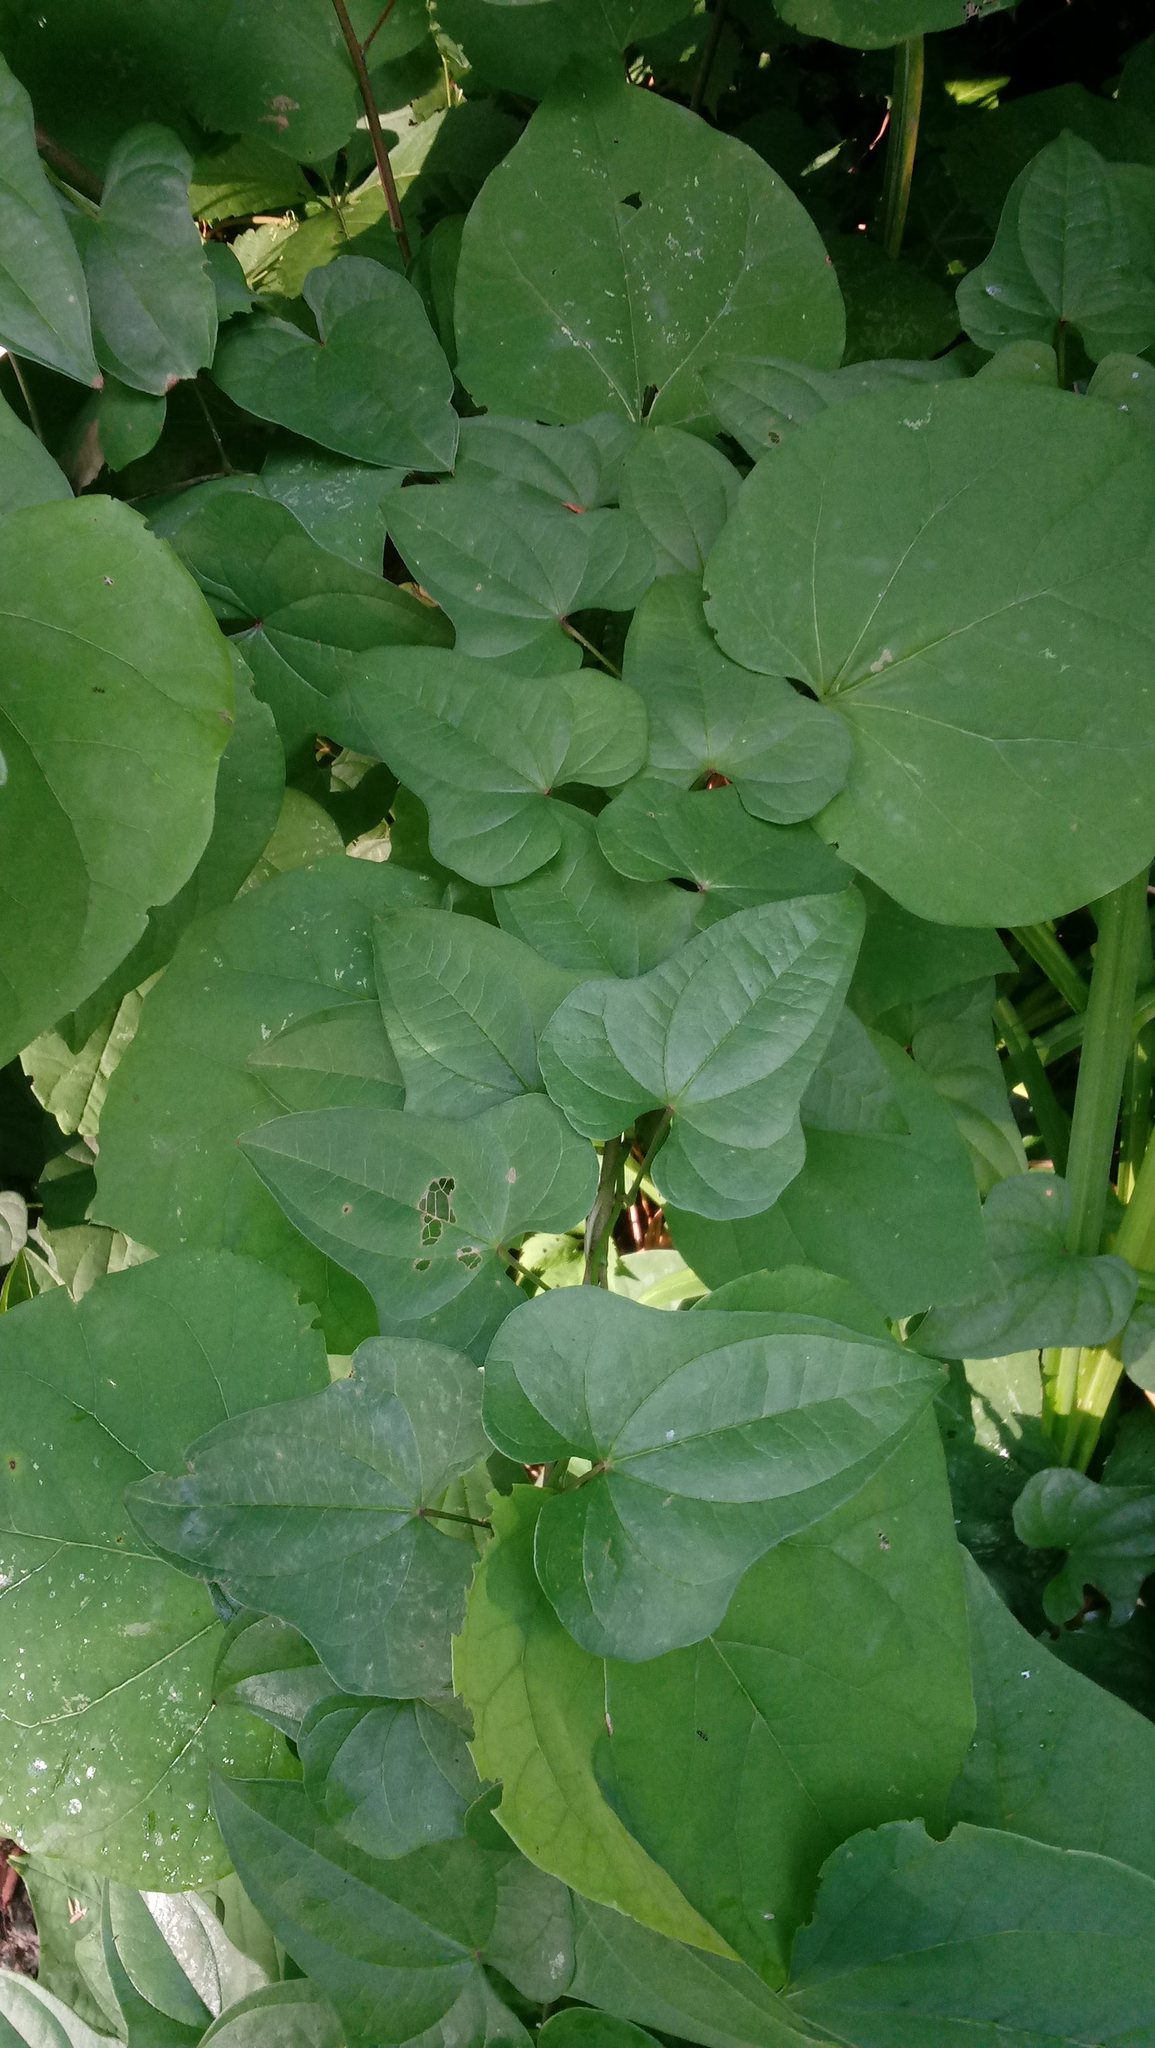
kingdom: Plantae
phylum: Tracheophyta
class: Liliopsida
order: Dioscoreales
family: Dioscoreaceae
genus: Dioscorea
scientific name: Dioscorea polystachya
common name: Chinese yam
